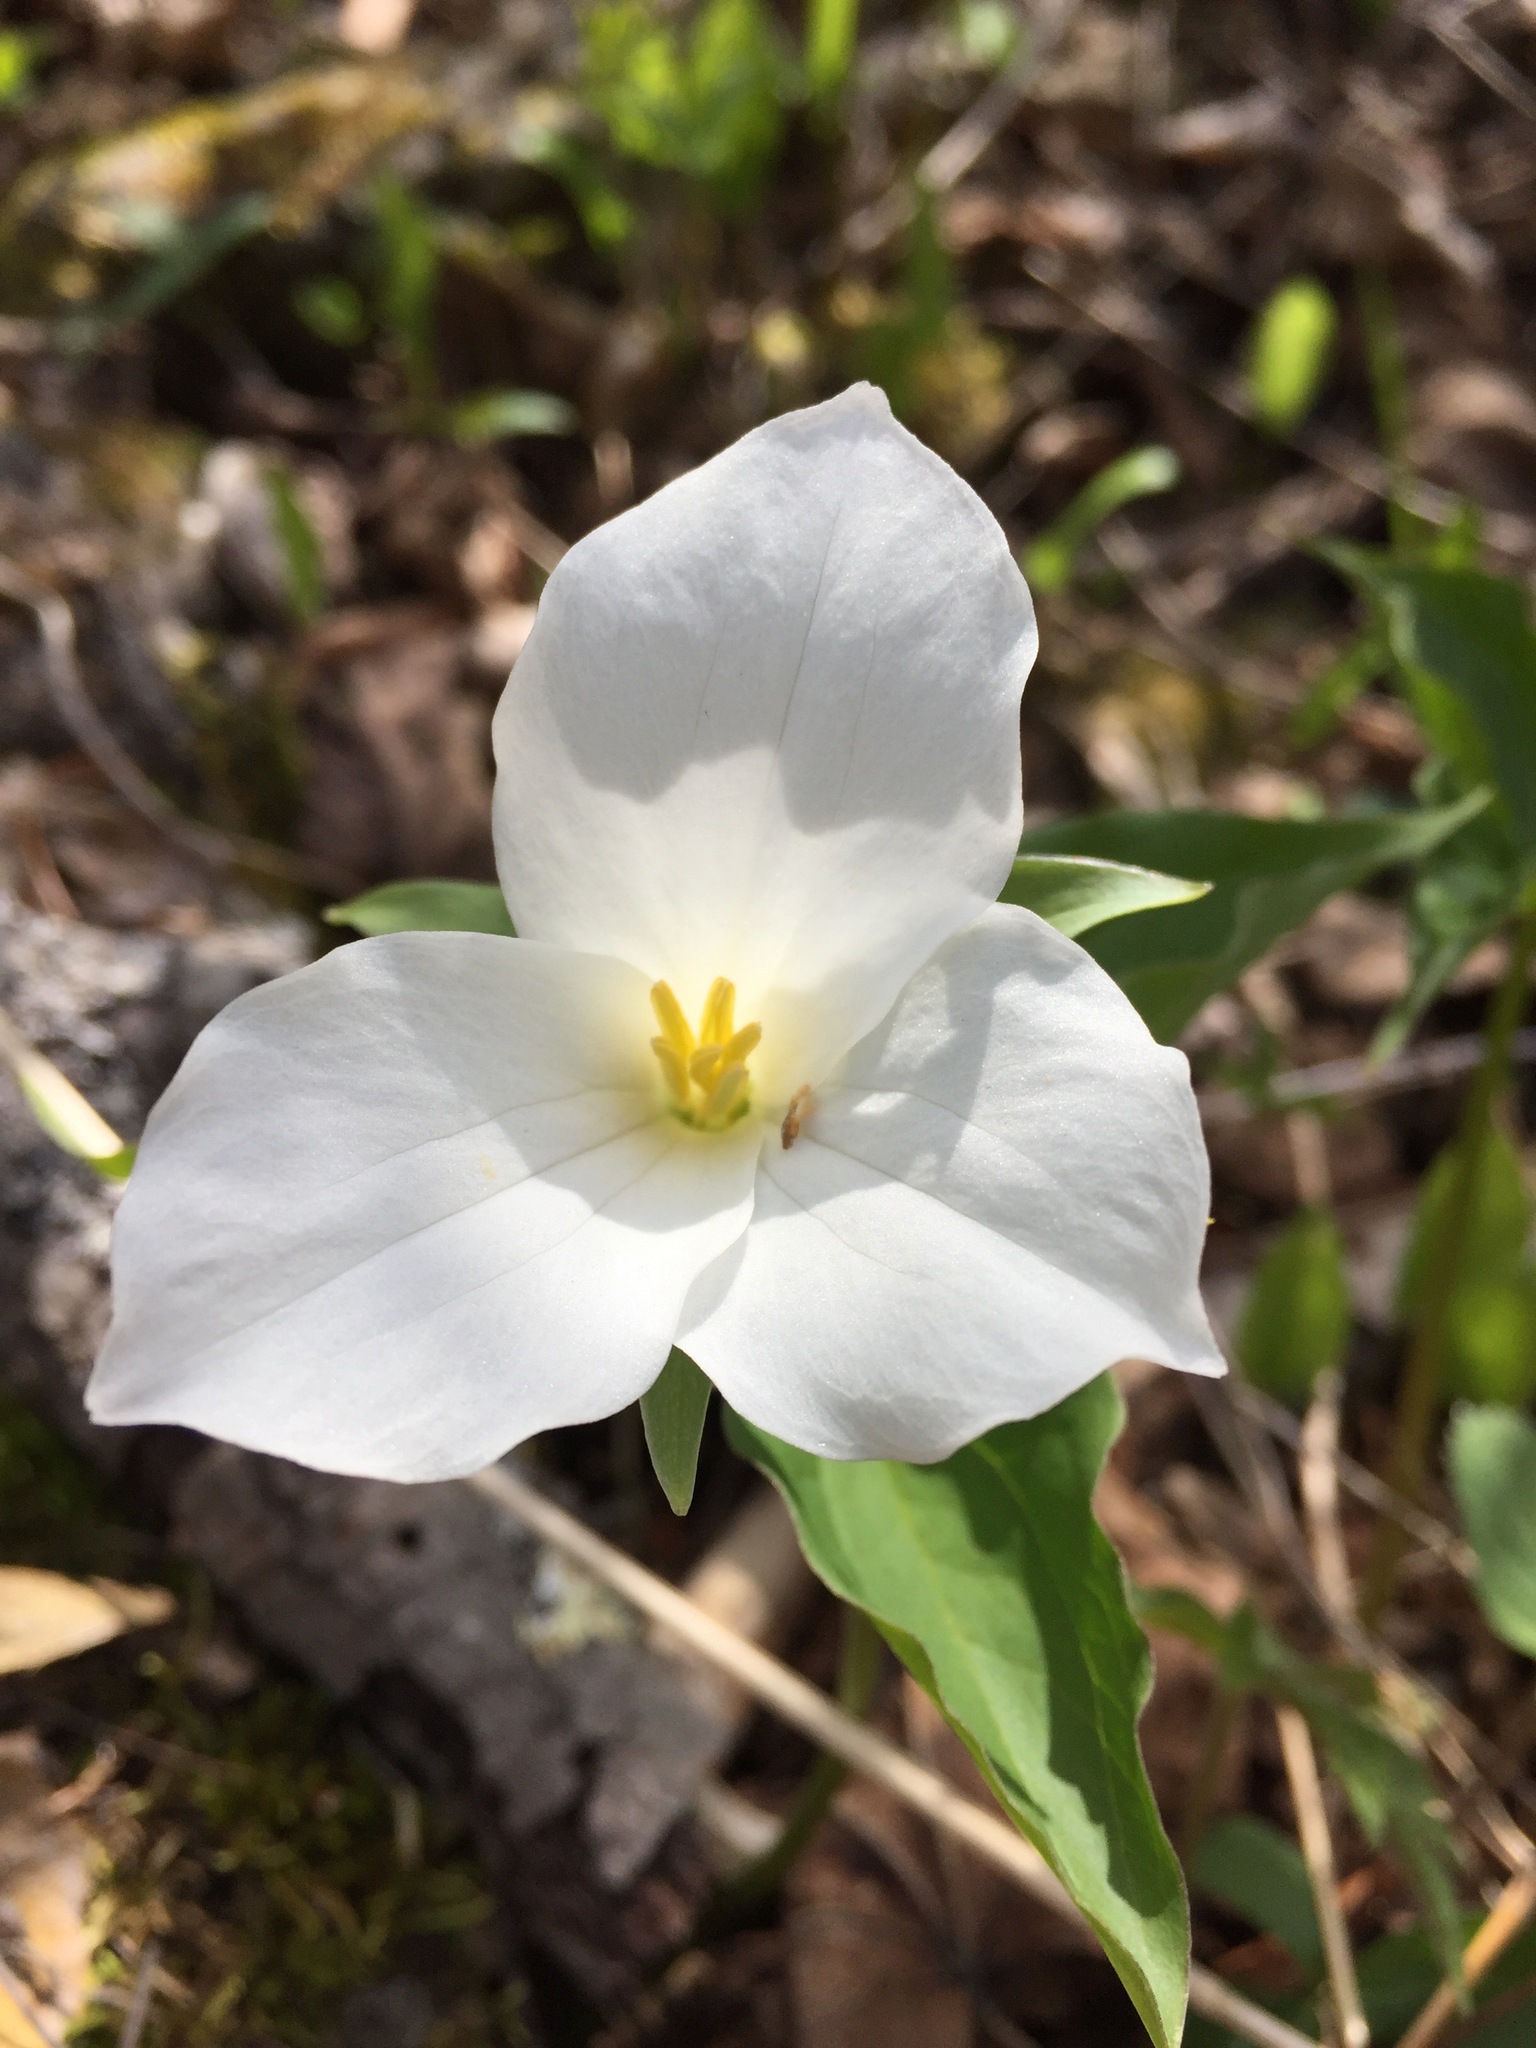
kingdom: Plantae
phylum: Tracheophyta
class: Liliopsida
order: Liliales
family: Melanthiaceae
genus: Trillium
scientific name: Trillium grandiflorum
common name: Great white trillium
